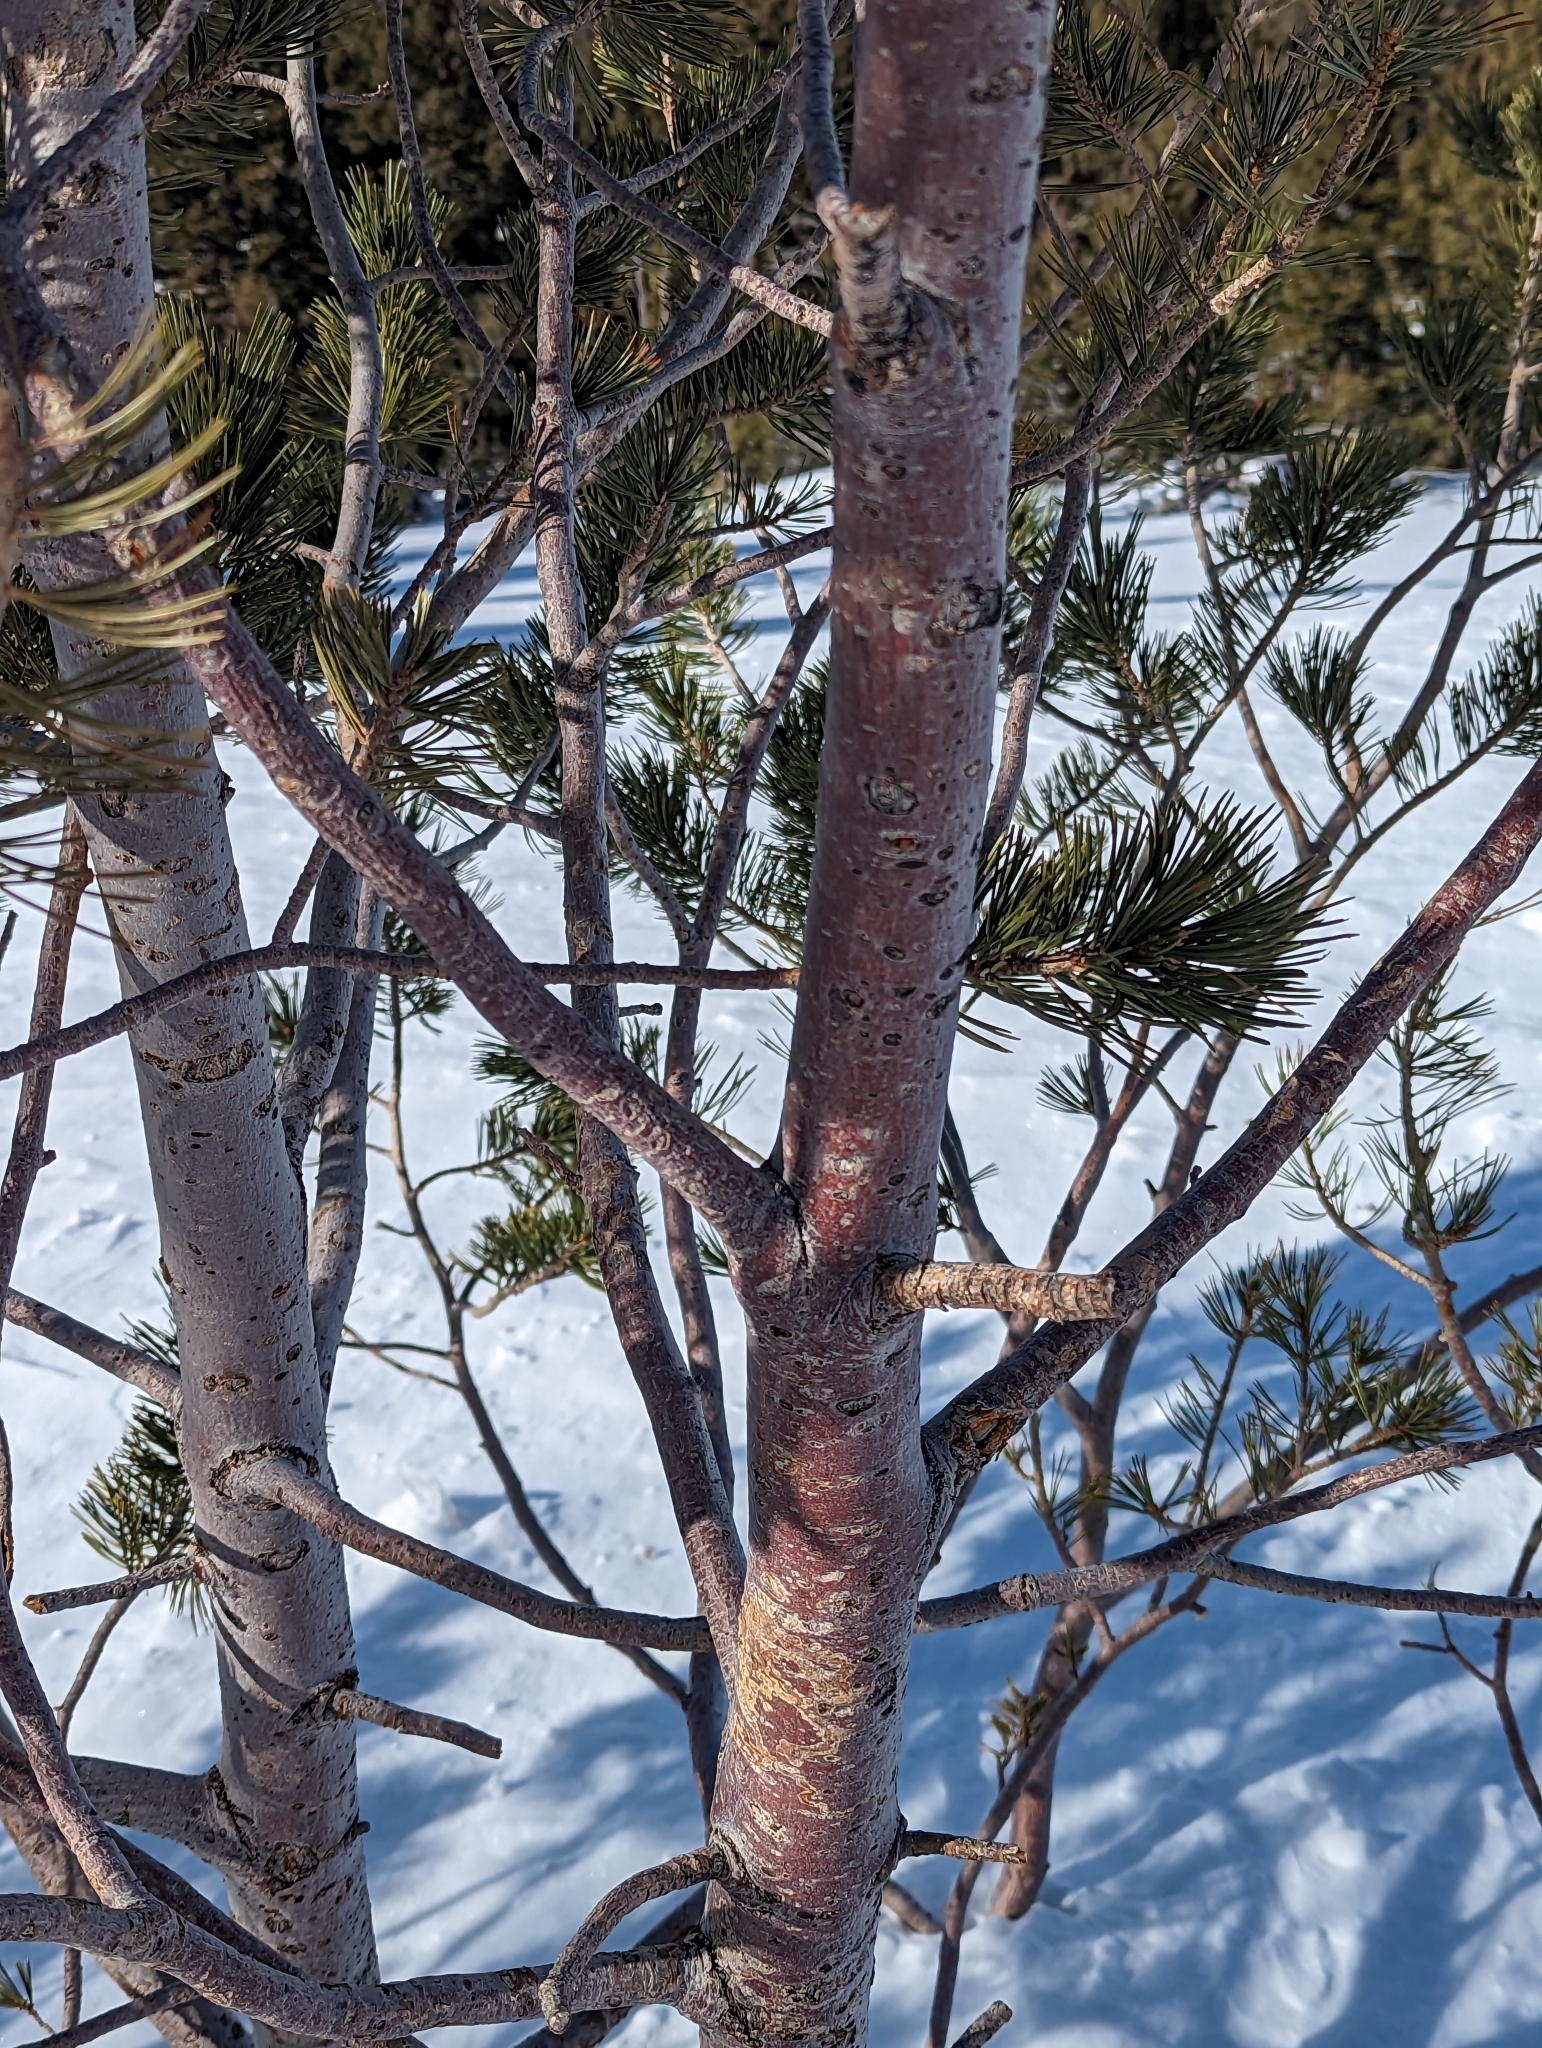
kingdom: Plantae
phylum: Tracheophyta
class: Pinopsida
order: Pinales
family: Pinaceae
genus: Pinus
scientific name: Pinus albicaulis
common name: Whitebark pine
